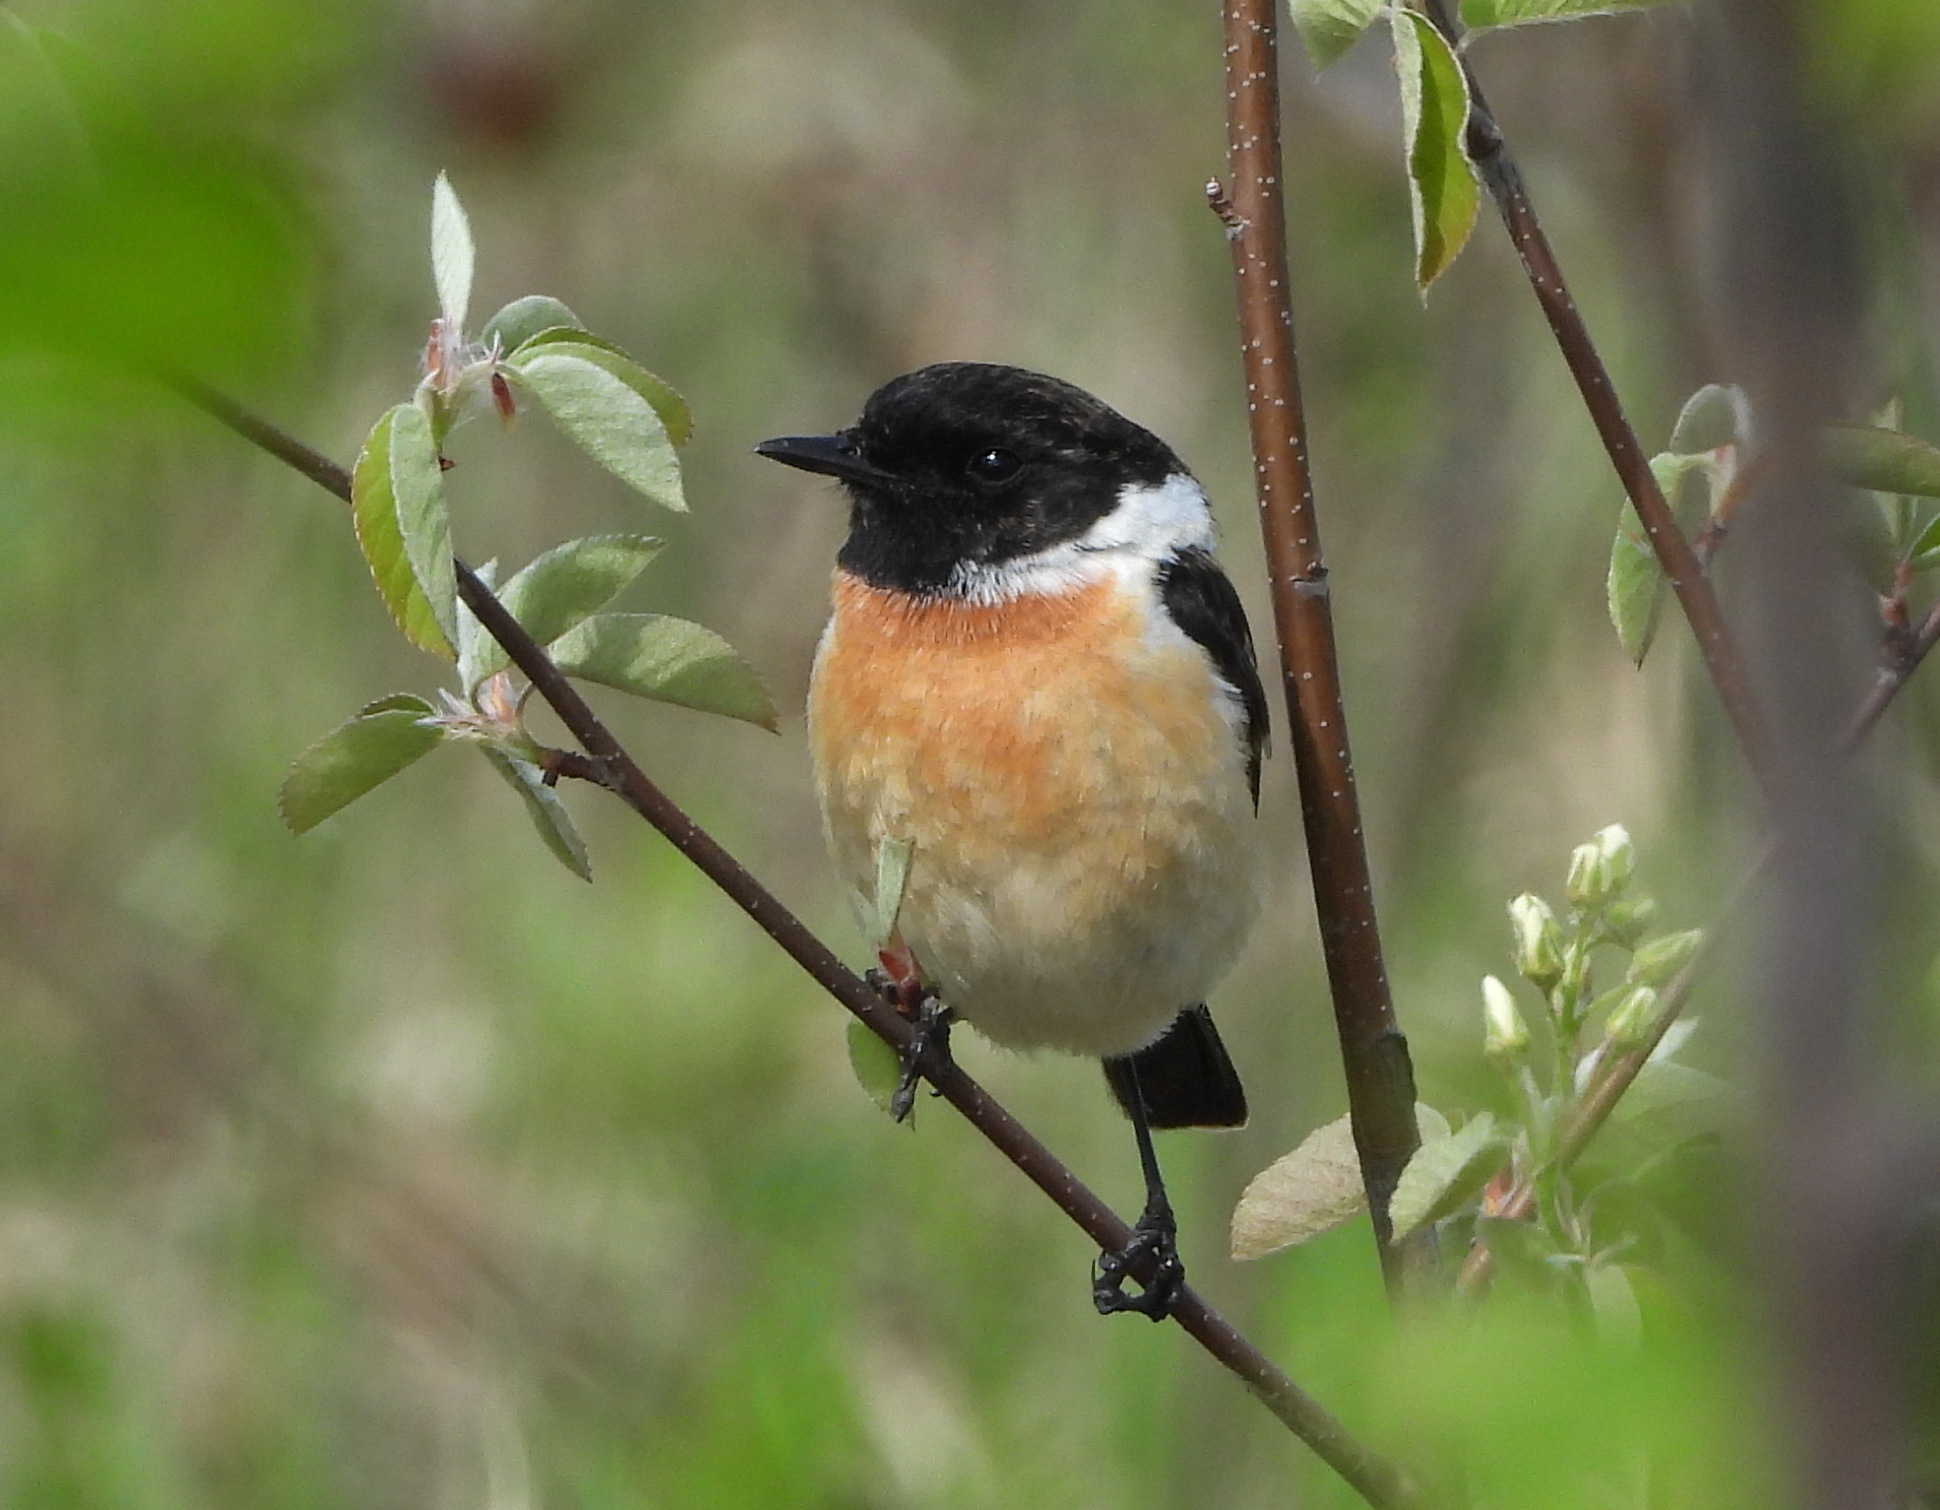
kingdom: Animalia
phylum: Chordata
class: Aves
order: Passeriformes
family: Muscicapidae
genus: Saxicola
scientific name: Saxicola maurus
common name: Siberian stonechat
